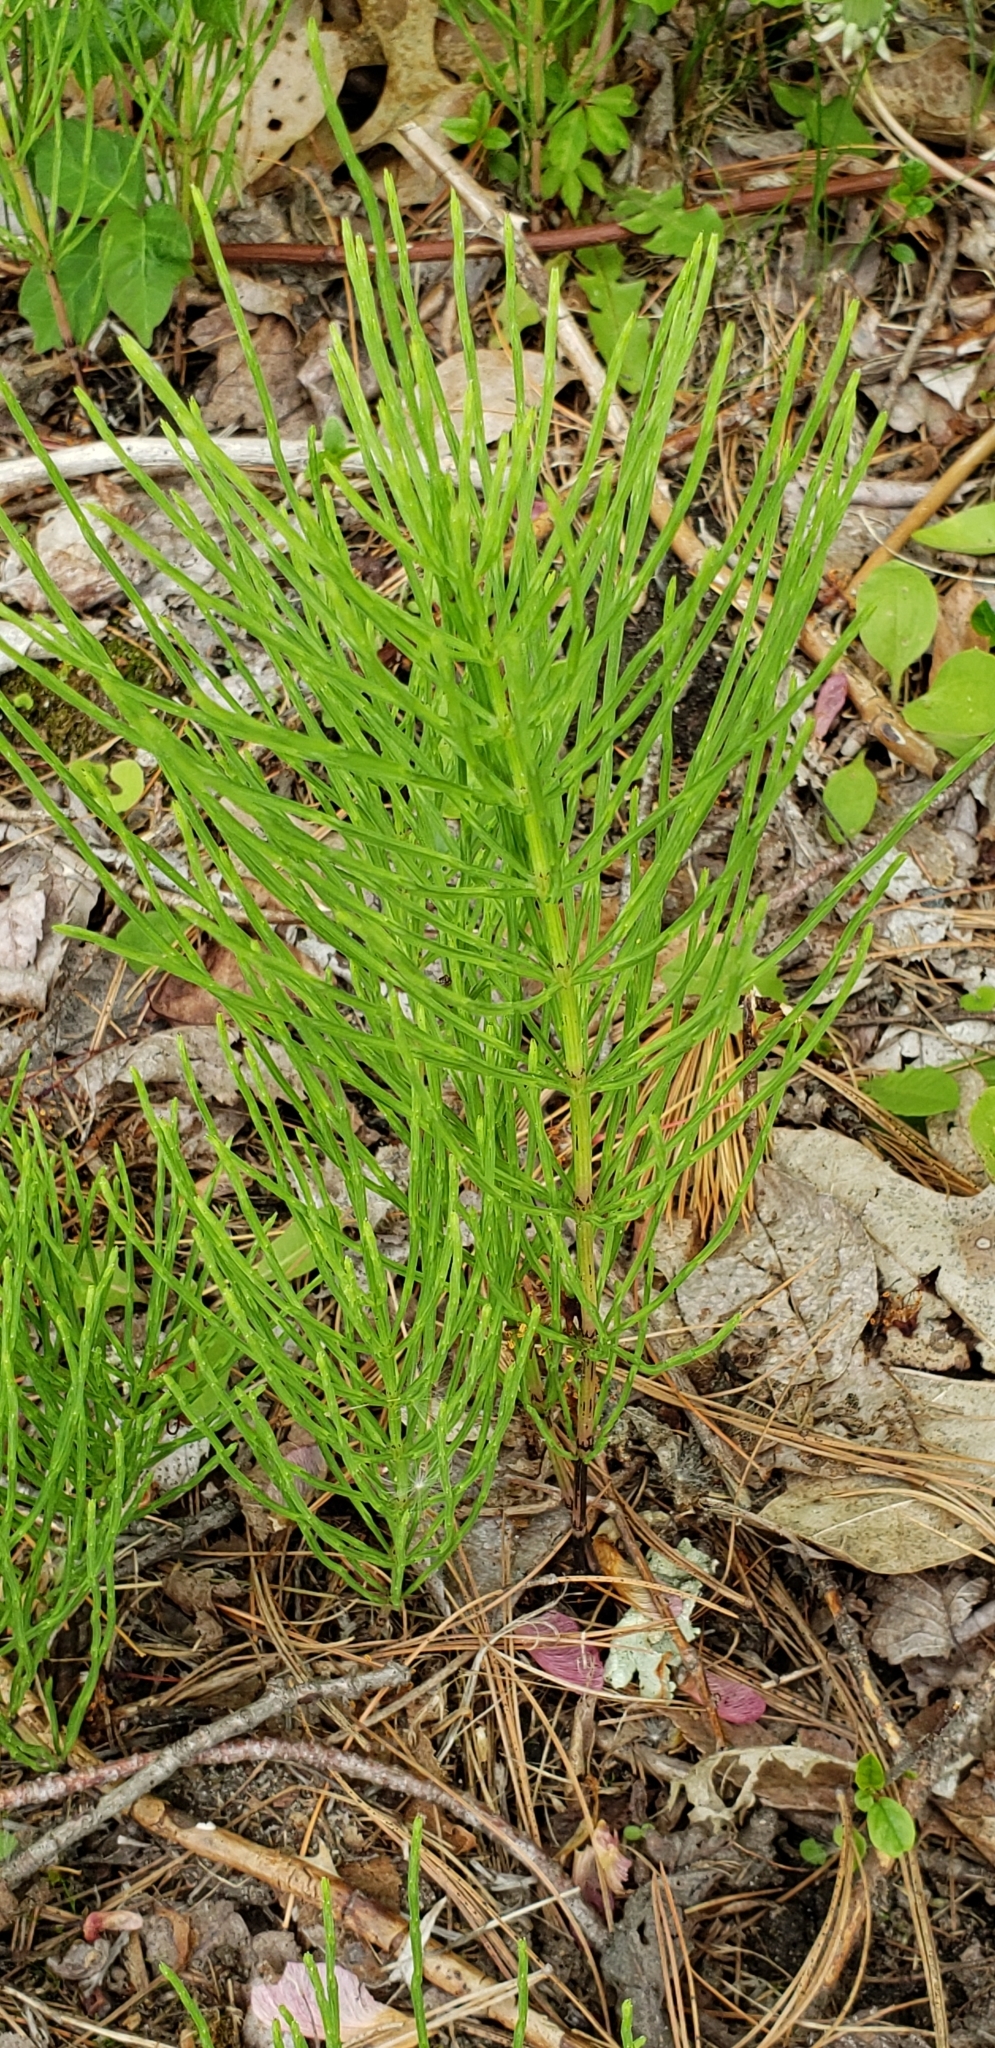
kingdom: Plantae
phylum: Tracheophyta
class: Polypodiopsida
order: Equisetales
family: Equisetaceae
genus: Equisetum
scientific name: Equisetum arvense
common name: Field horsetail
